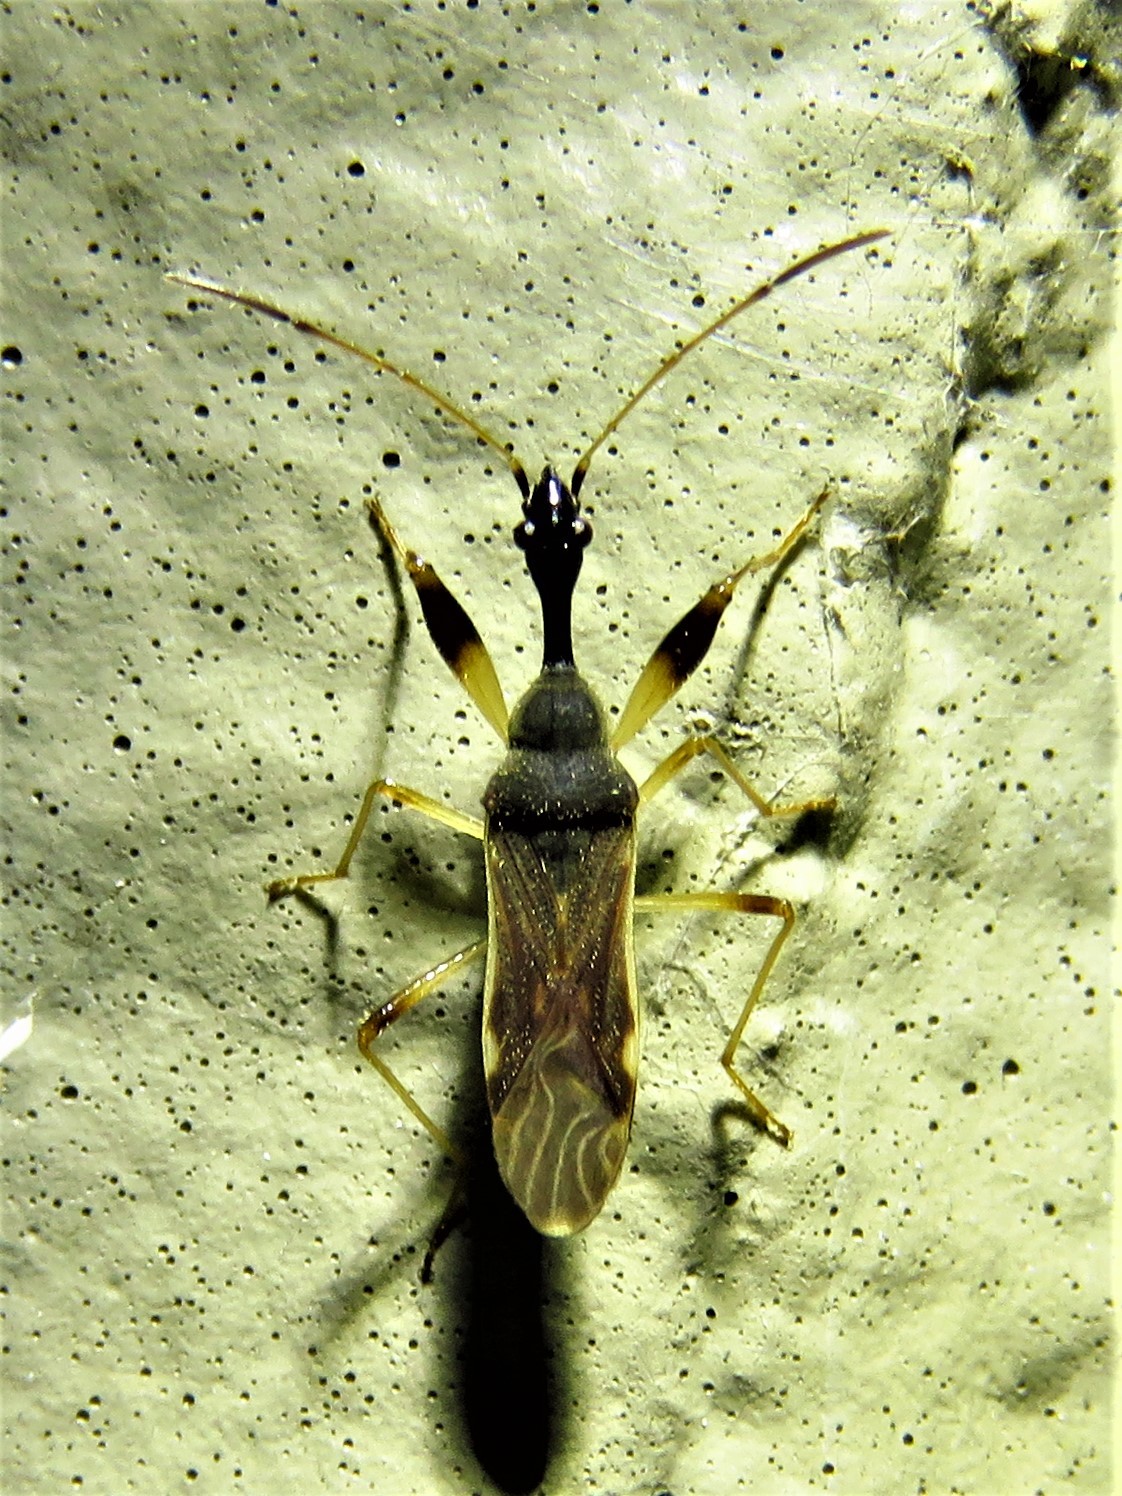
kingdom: Animalia
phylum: Arthropoda
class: Insecta
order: Hemiptera
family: Rhyparochromidae
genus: Myodocha
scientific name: Myodocha serripes
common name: Long-necked seed bug
